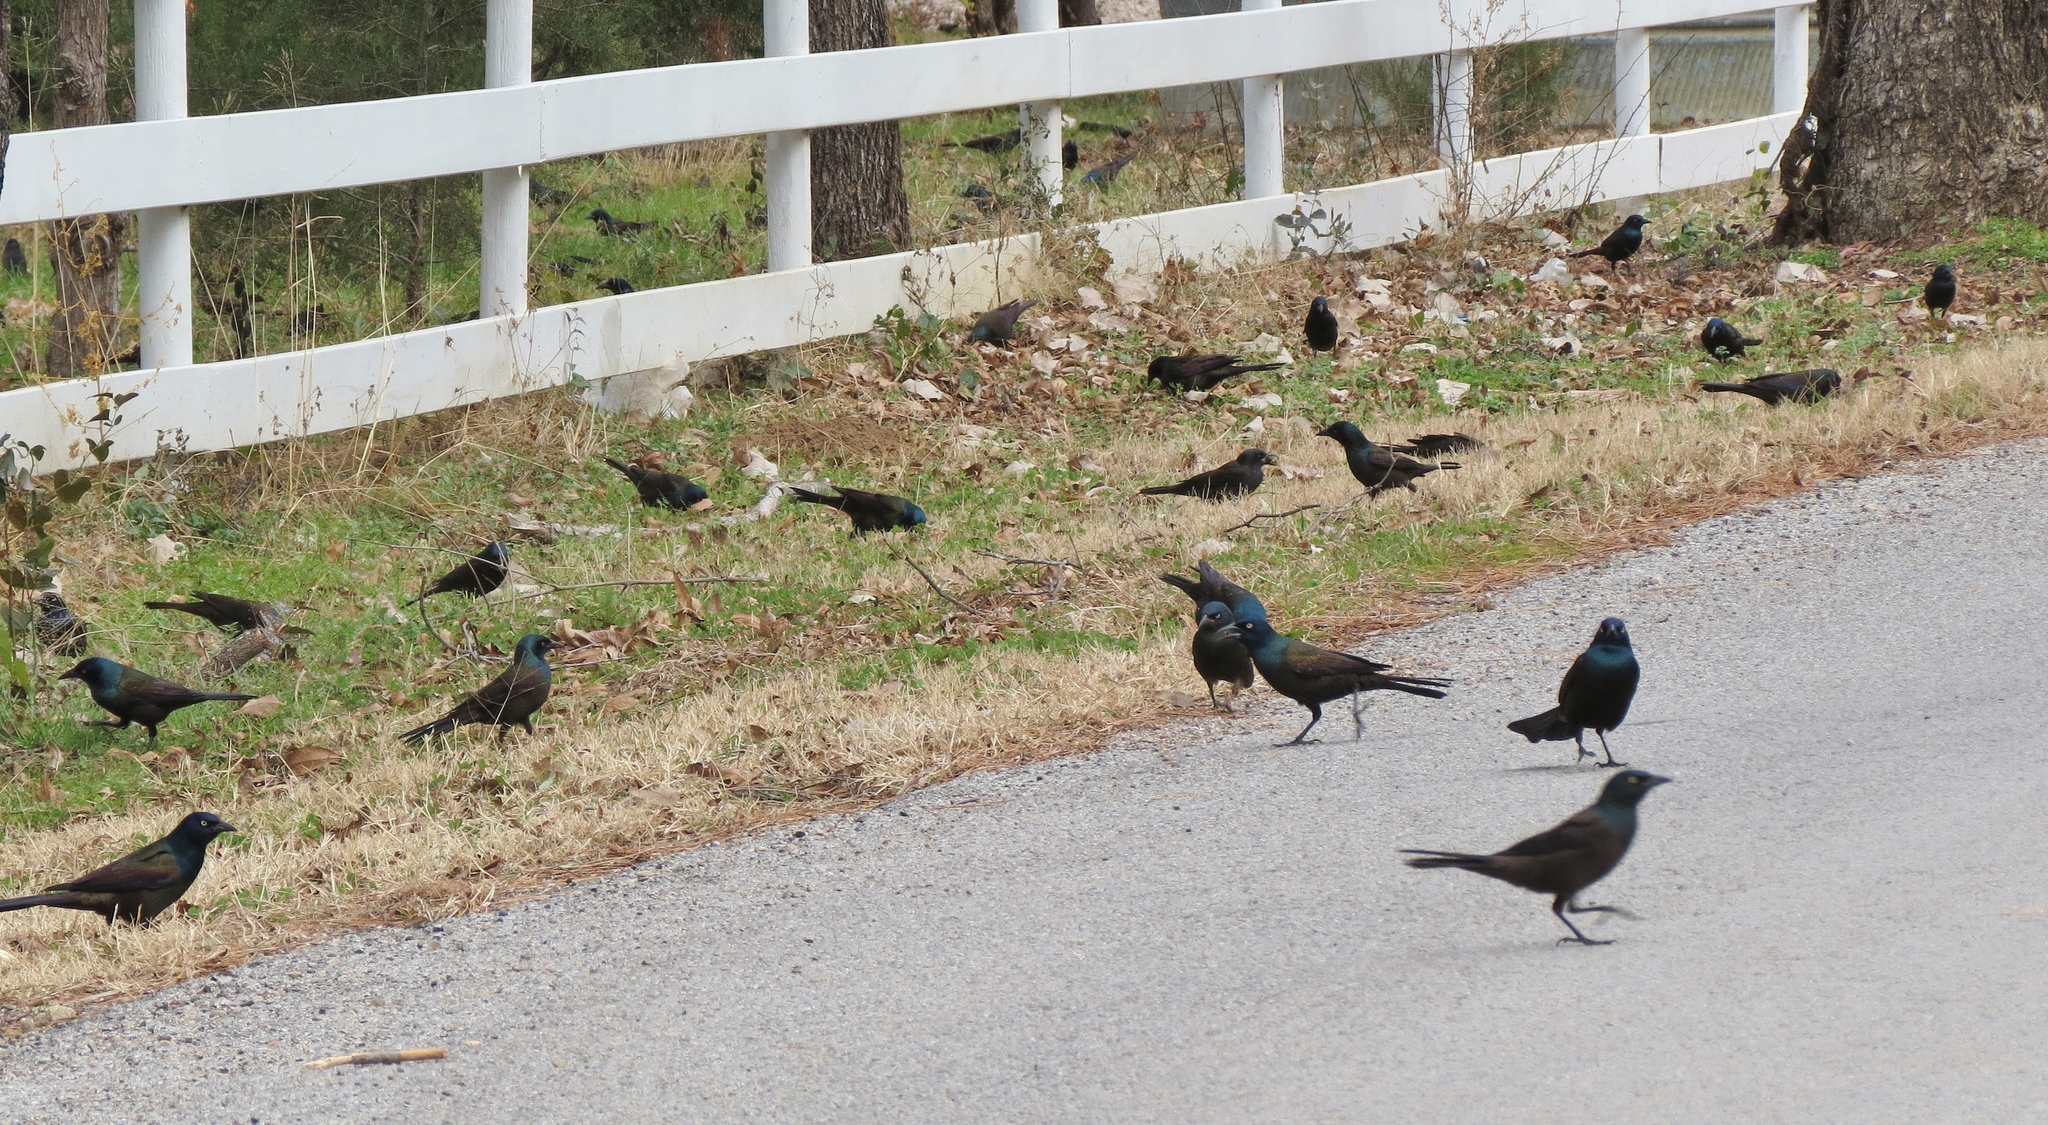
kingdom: Animalia
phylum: Chordata
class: Aves
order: Passeriformes
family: Icteridae
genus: Quiscalus
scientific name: Quiscalus quiscula
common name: Common grackle
